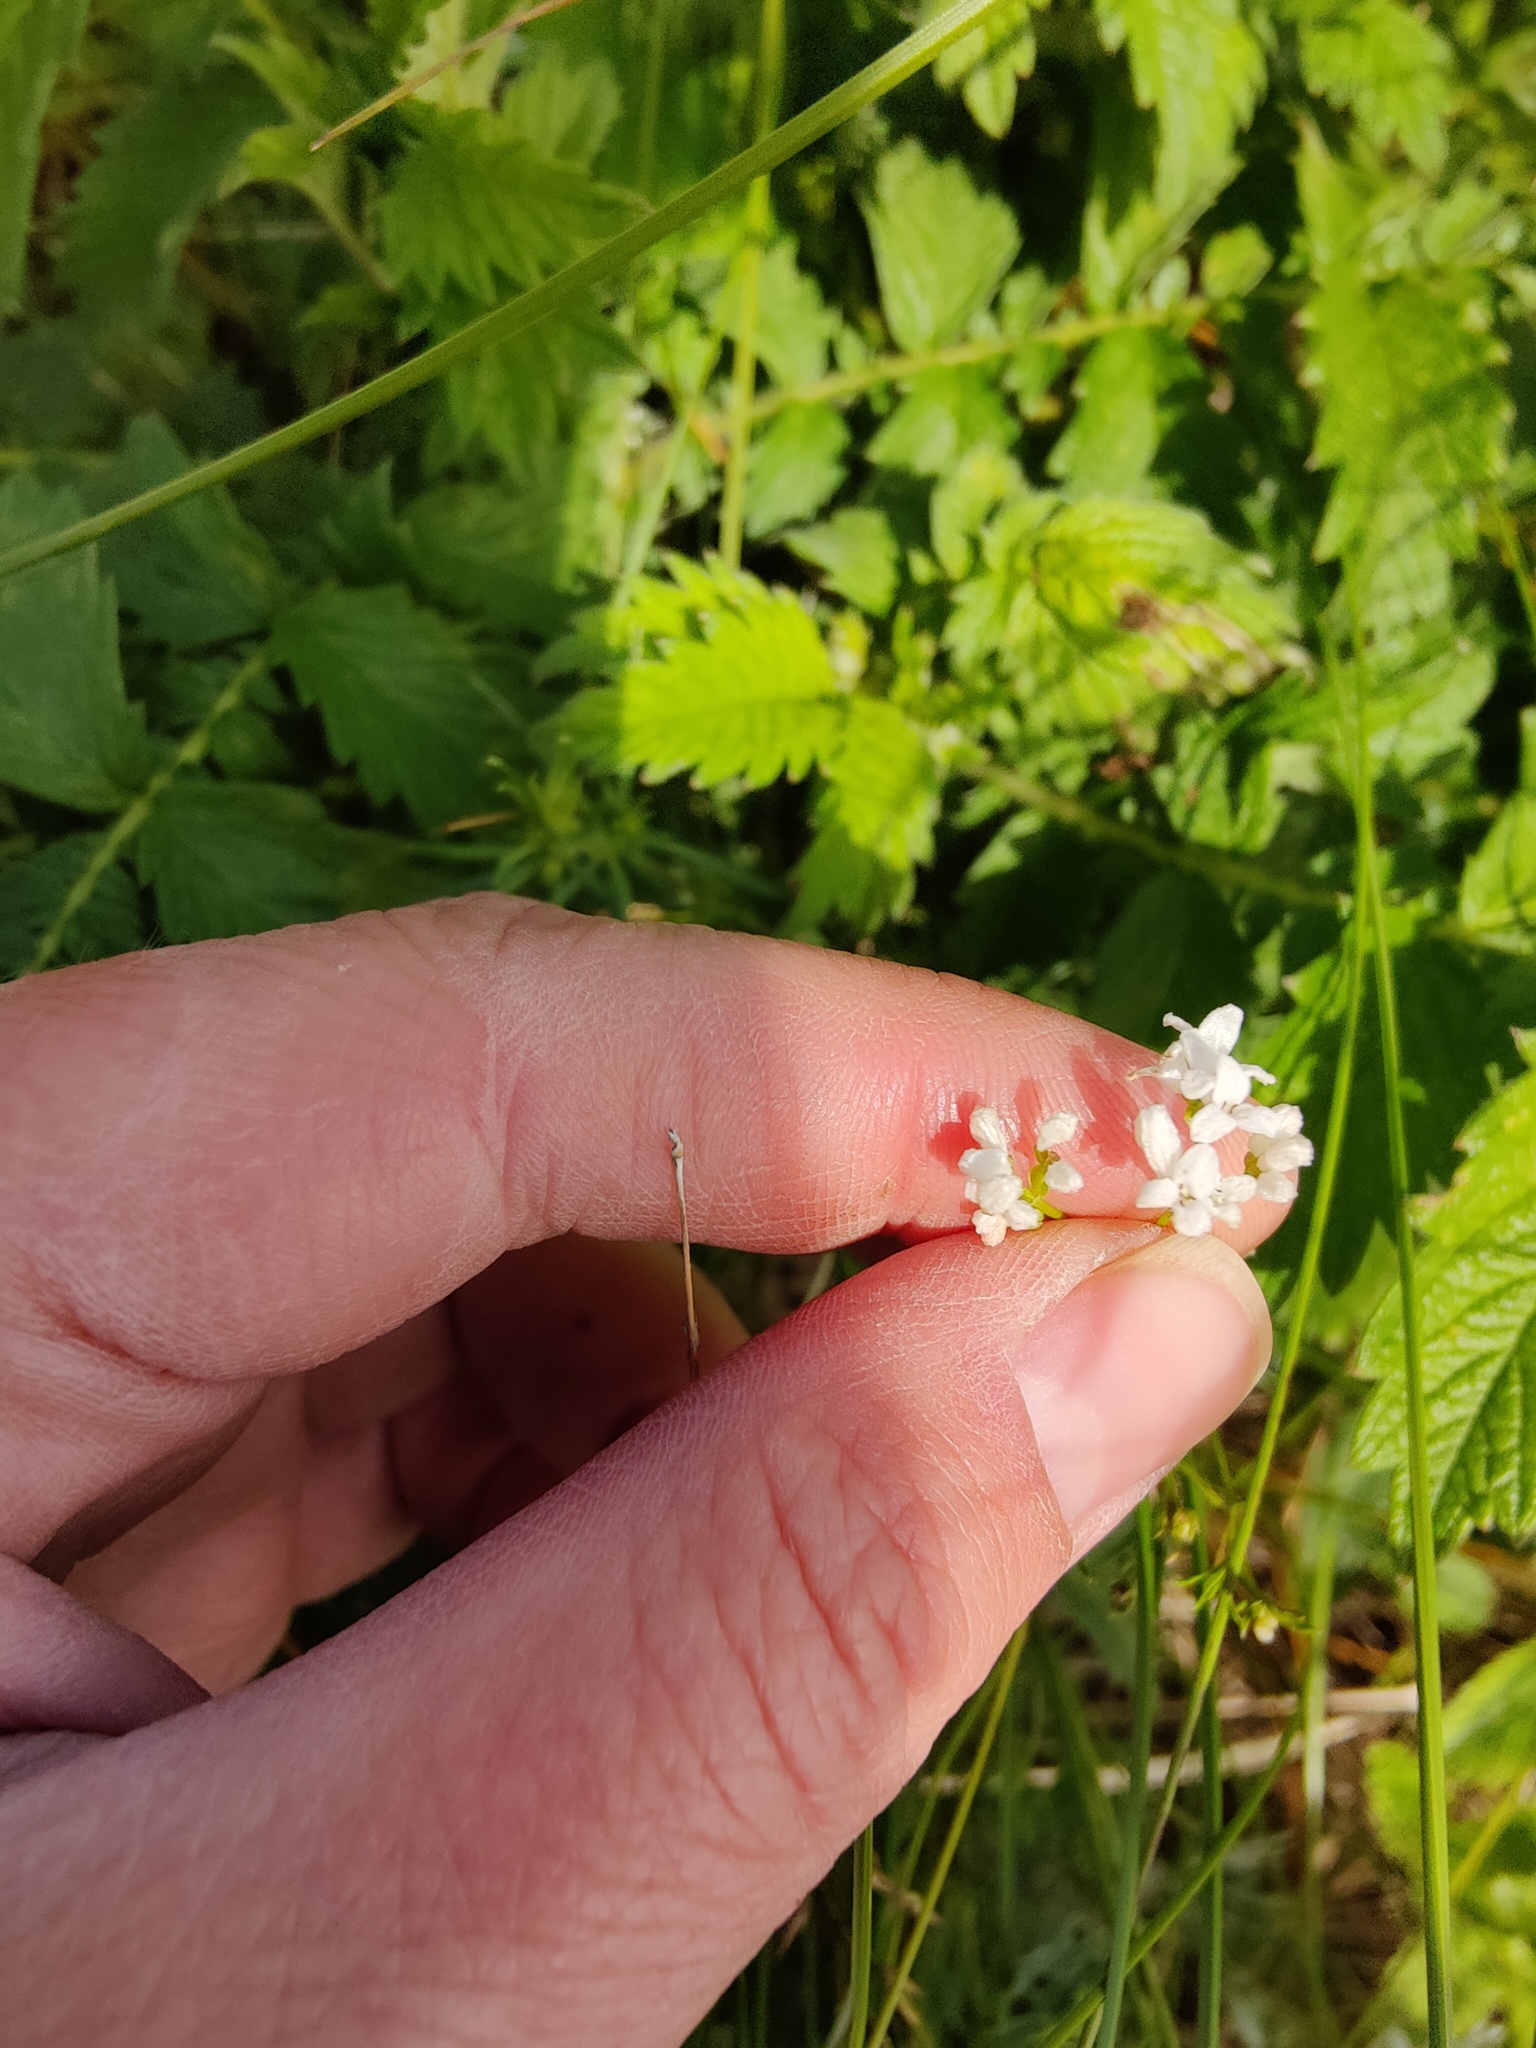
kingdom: Plantae
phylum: Tracheophyta
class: Magnoliopsida
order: Gentianales
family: Rubiaceae
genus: Asperula
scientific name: Asperula tinctoria
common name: Dyer's woodruff
